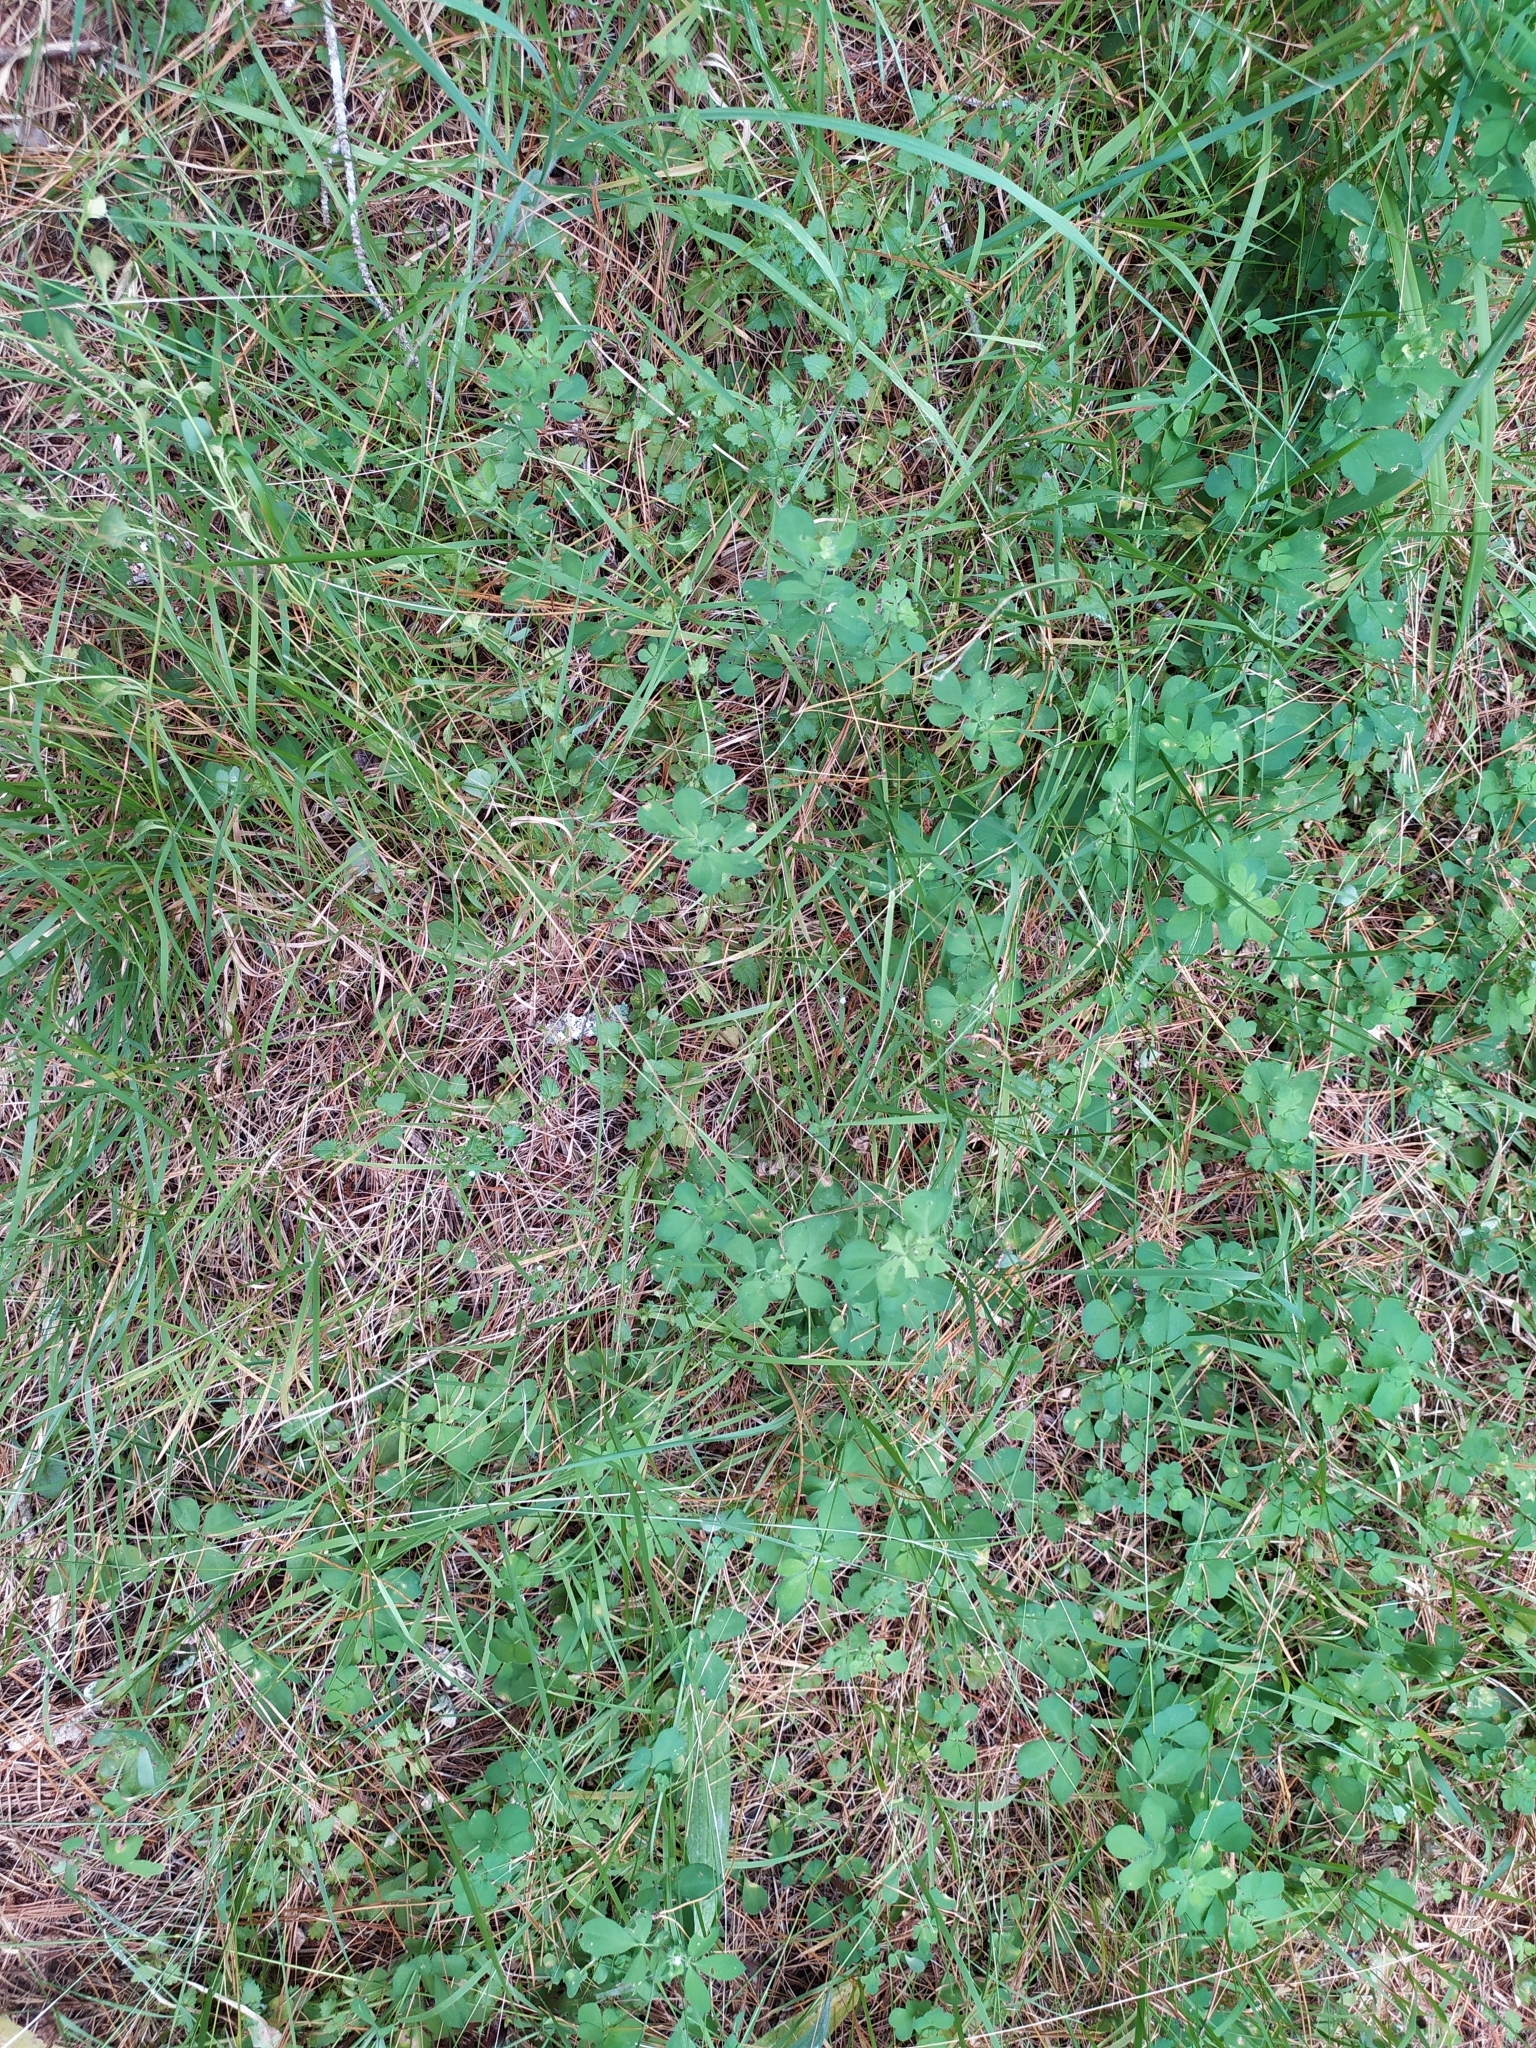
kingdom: Plantae
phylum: Tracheophyta
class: Magnoliopsida
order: Lamiales
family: Plantaginaceae
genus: Veronica
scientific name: Veronica plebeia
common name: Speedwell
